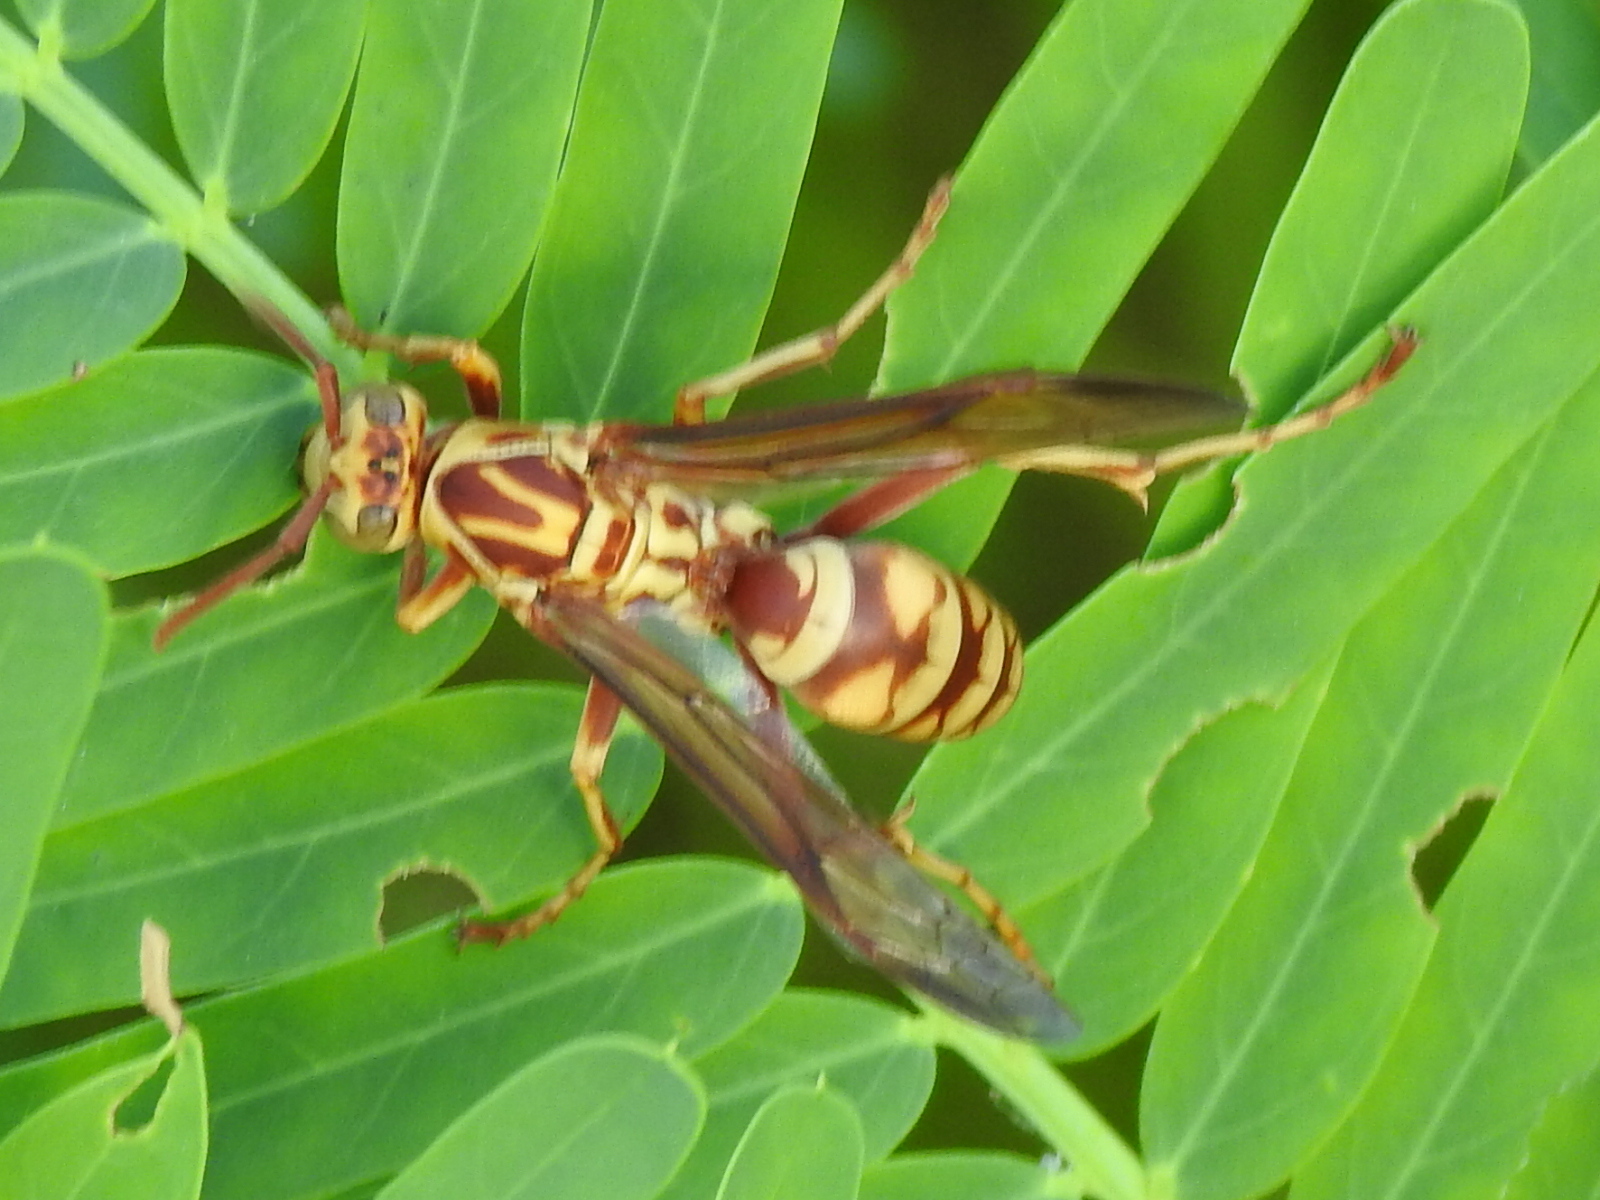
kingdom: Animalia
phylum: Arthropoda
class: Insecta
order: Hymenoptera
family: Eumenidae
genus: Polistes
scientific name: Polistes apachus
